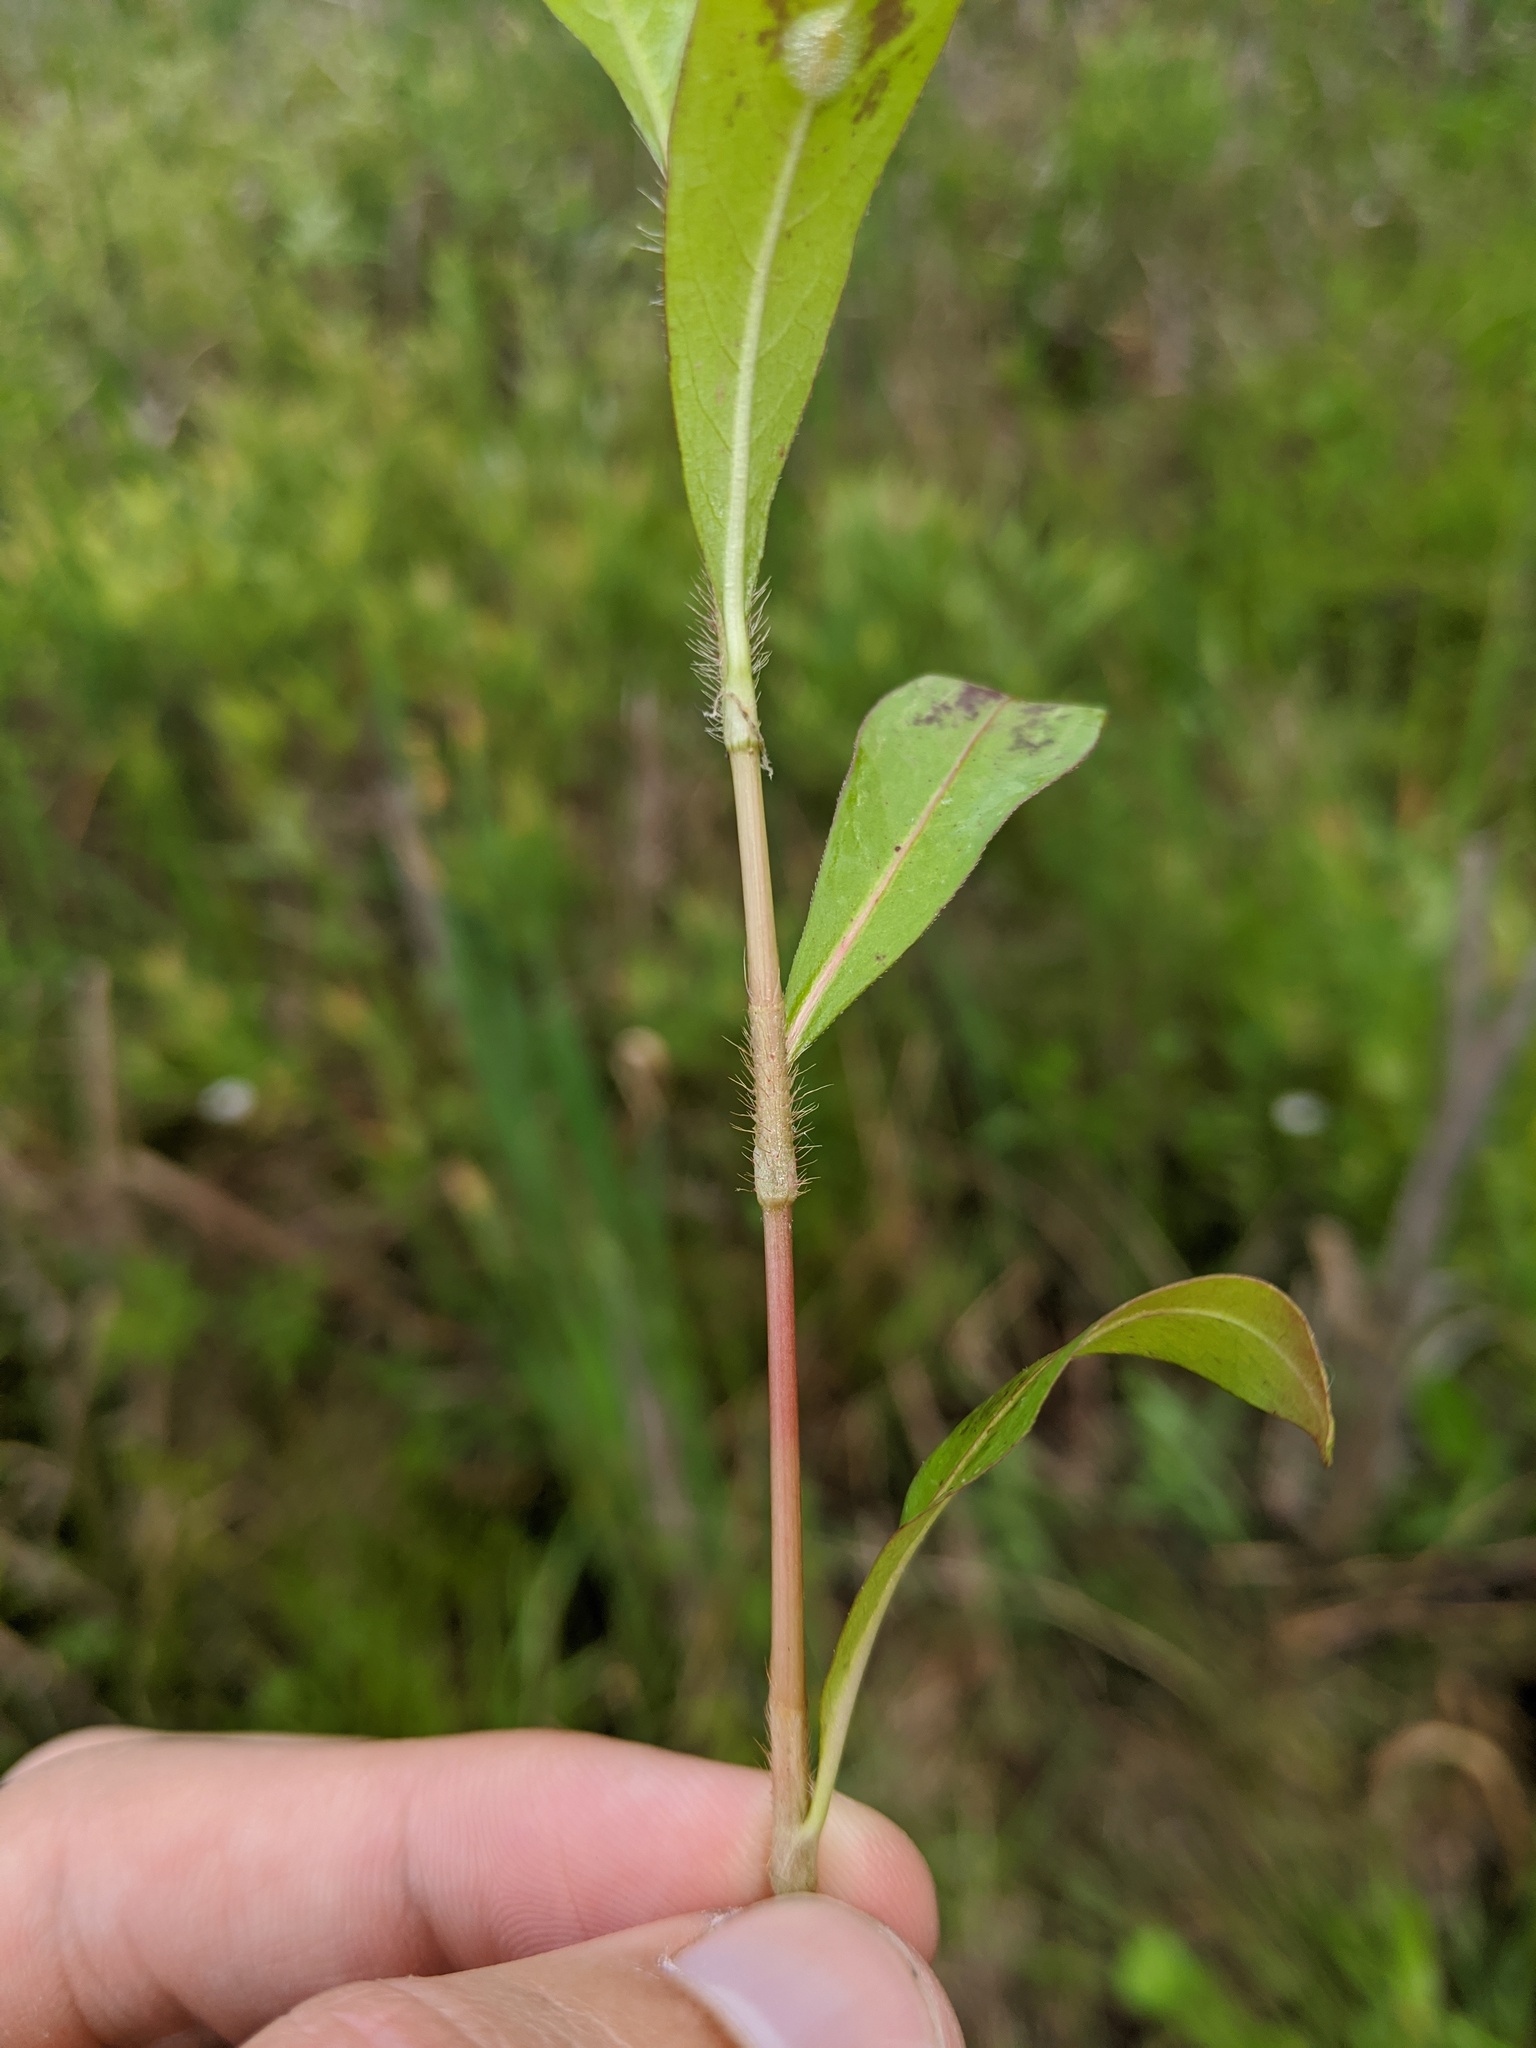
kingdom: Plantae
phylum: Tracheophyta
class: Magnoliopsida
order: Caryophyllales
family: Polygonaceae
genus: Persicaria
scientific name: Persicaria setacea
